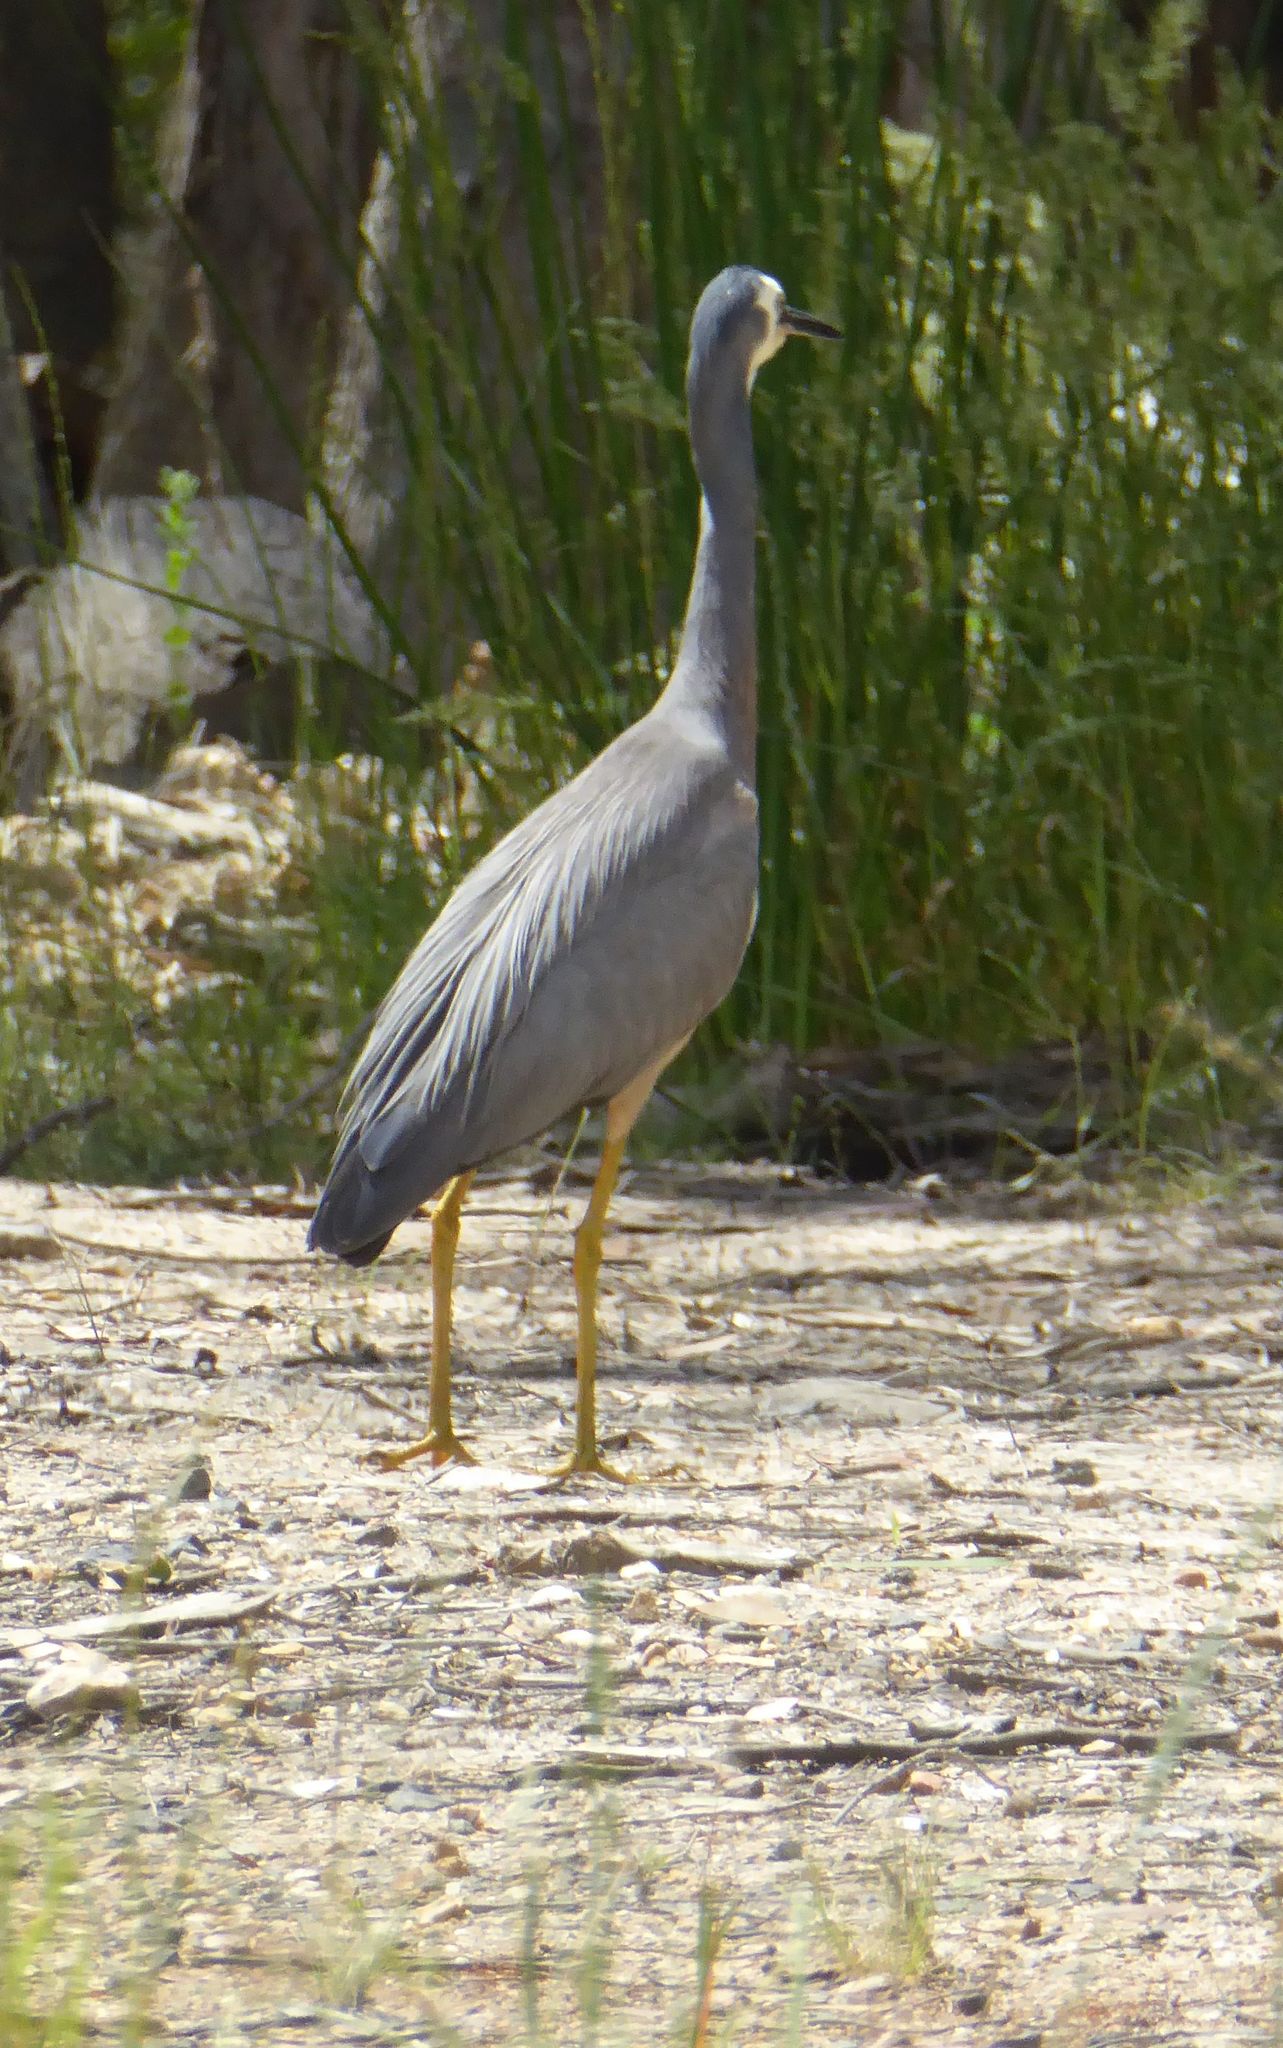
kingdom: Animalia
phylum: Chordata
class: Aves
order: Pelecaniformes
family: Ardeidae
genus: Egretta
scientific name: Egretta novaehollandiae
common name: White-faced heron
